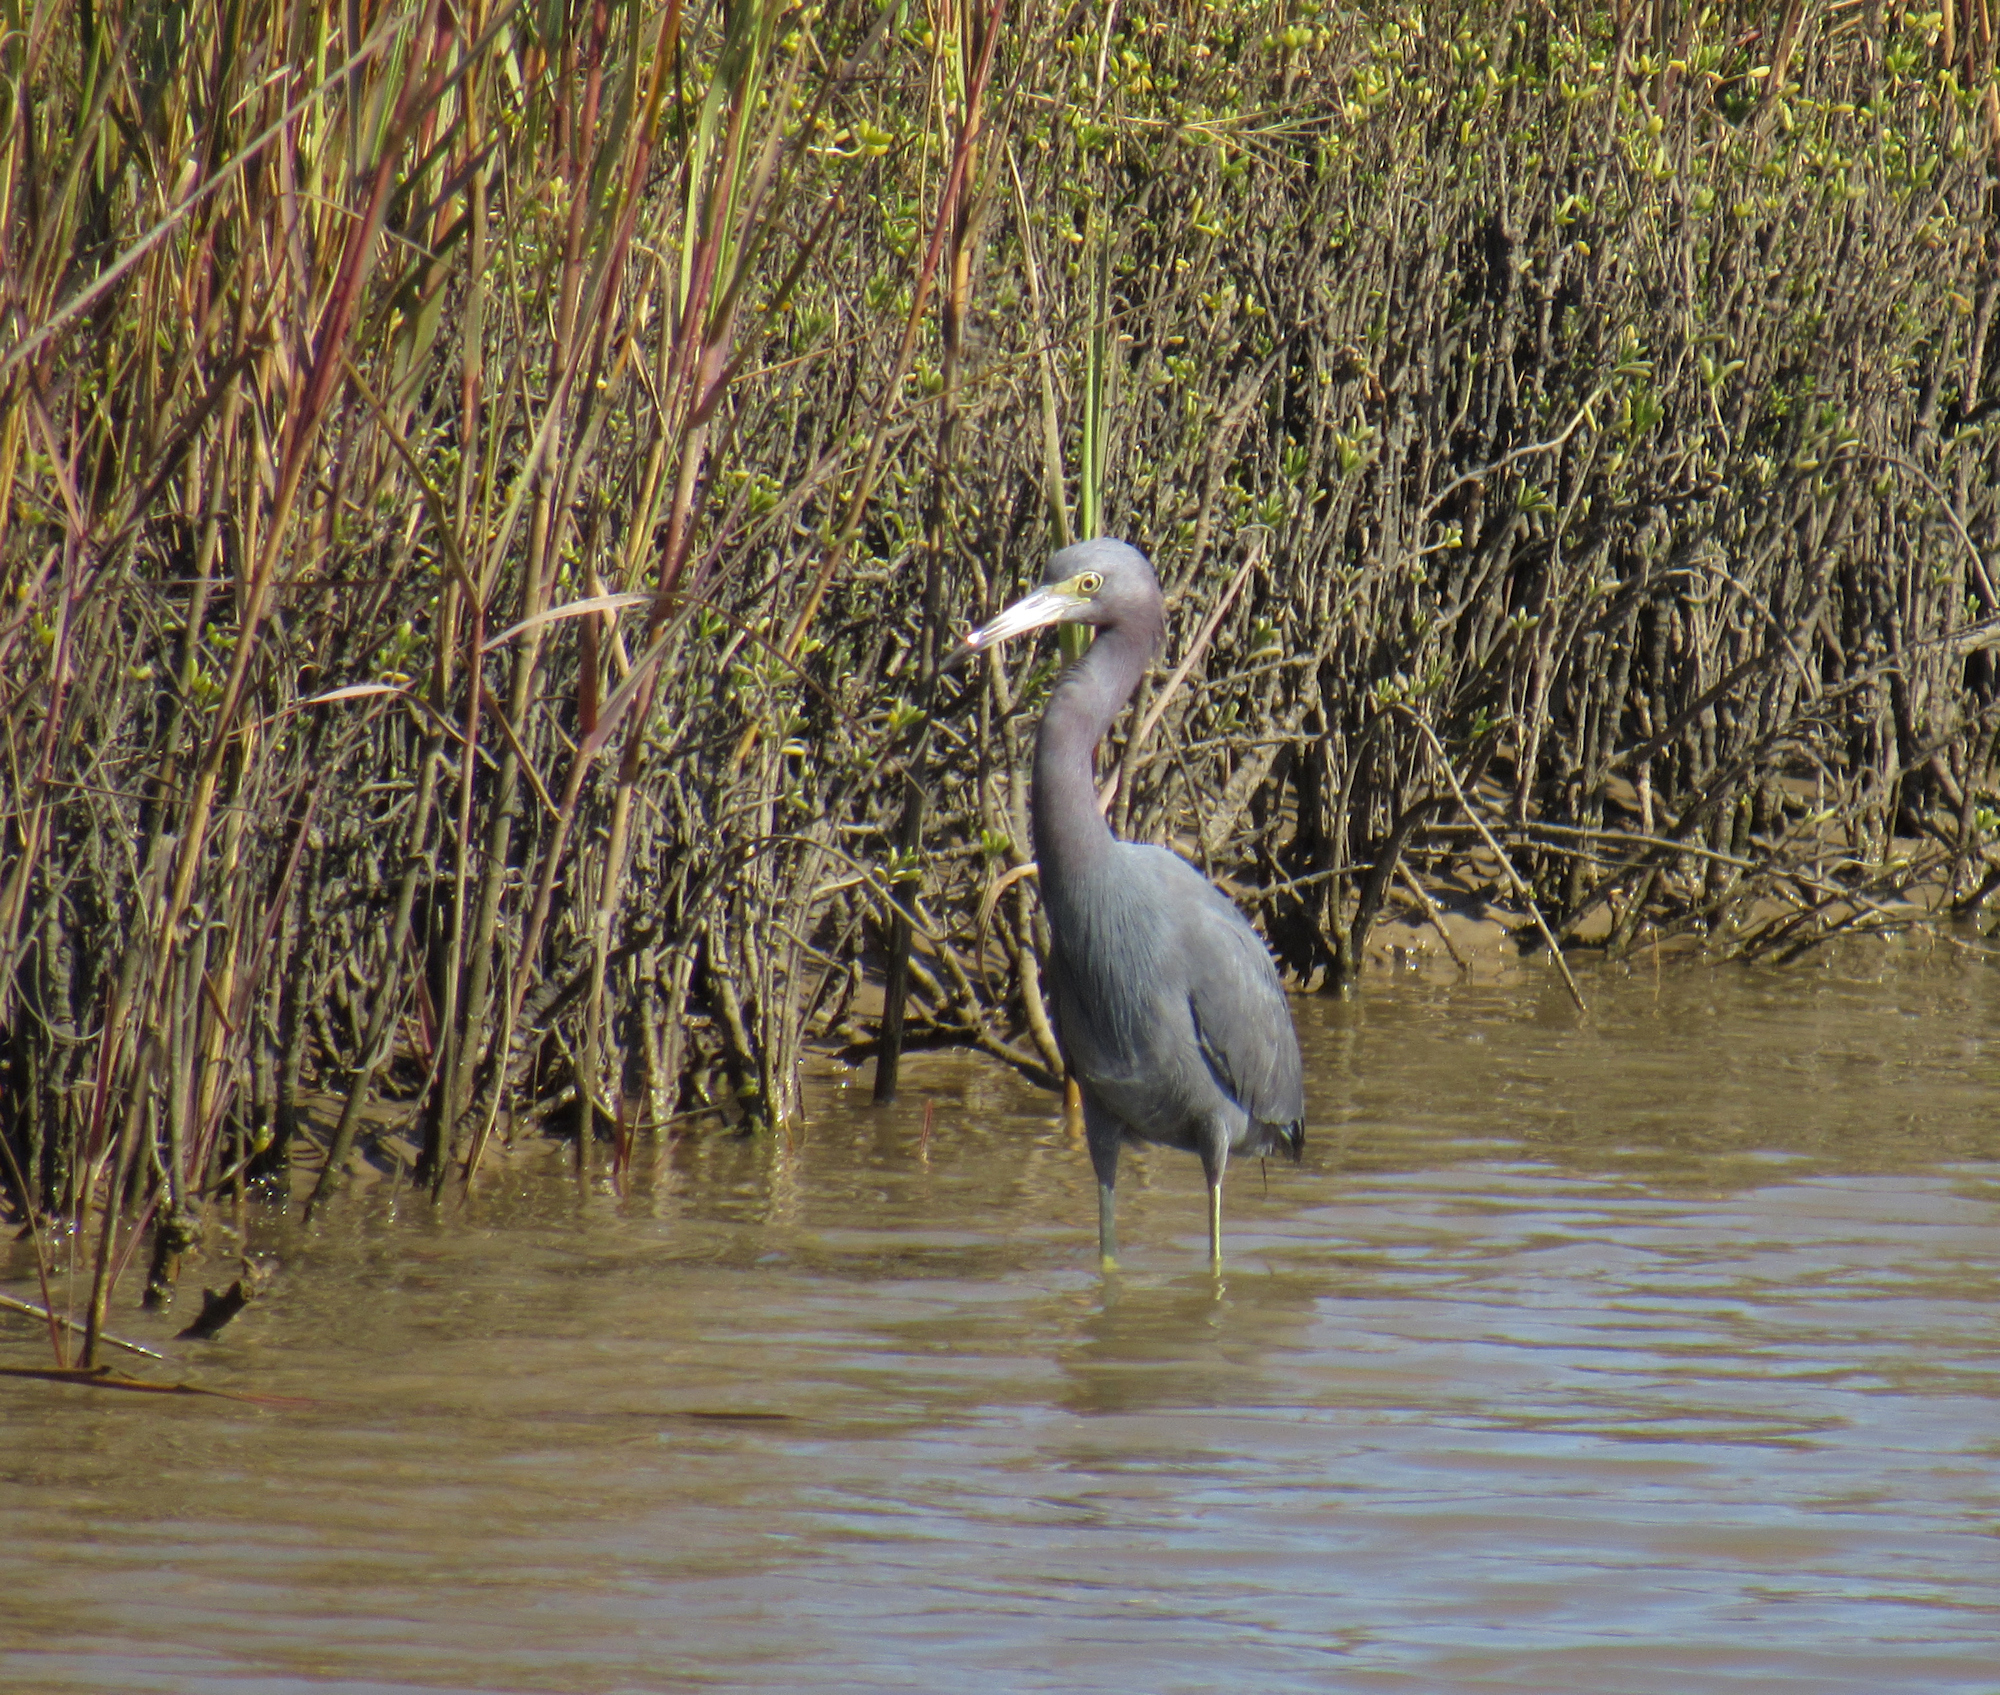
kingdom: Animalia
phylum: Chordata
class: Aves
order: Pelecaniformes
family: Ardeidae
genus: Egretta
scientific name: Egretta caerulea
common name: Little blue heron
